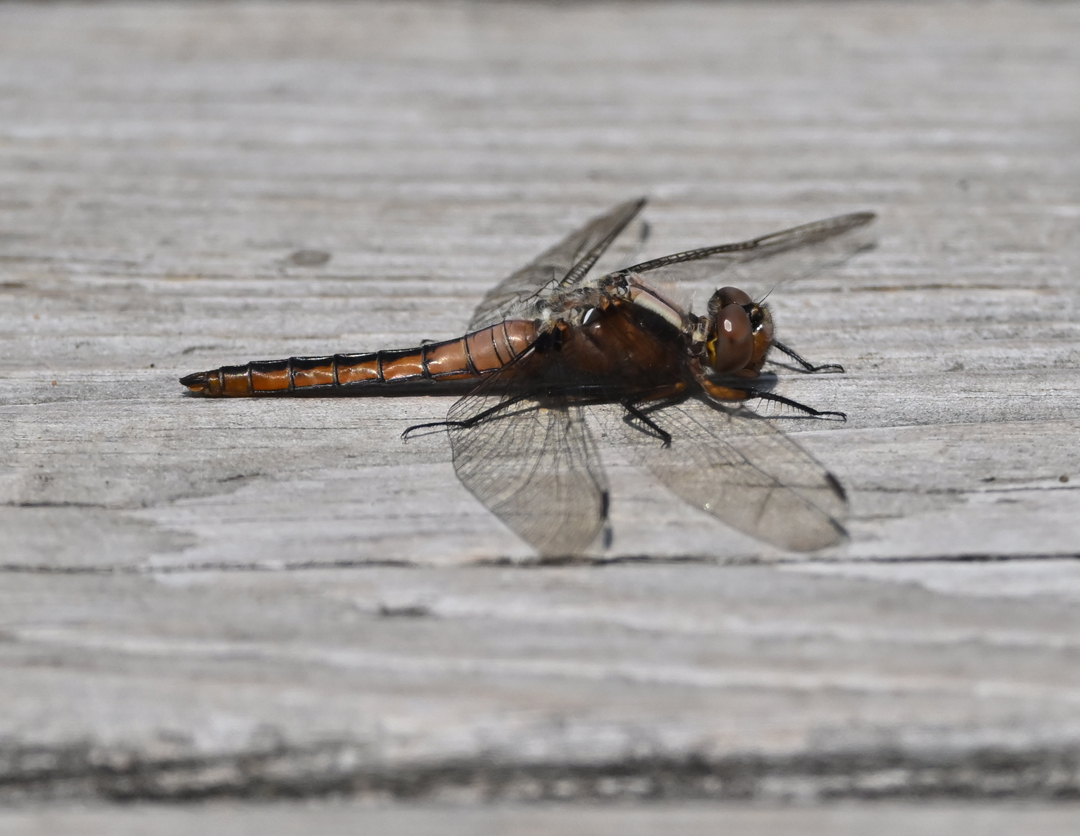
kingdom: Animalia
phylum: Arthropoda
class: Insecta
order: Odonata
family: Libellulidae
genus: Ladona
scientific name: Ladona julia
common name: Chalk-fronted corporal
